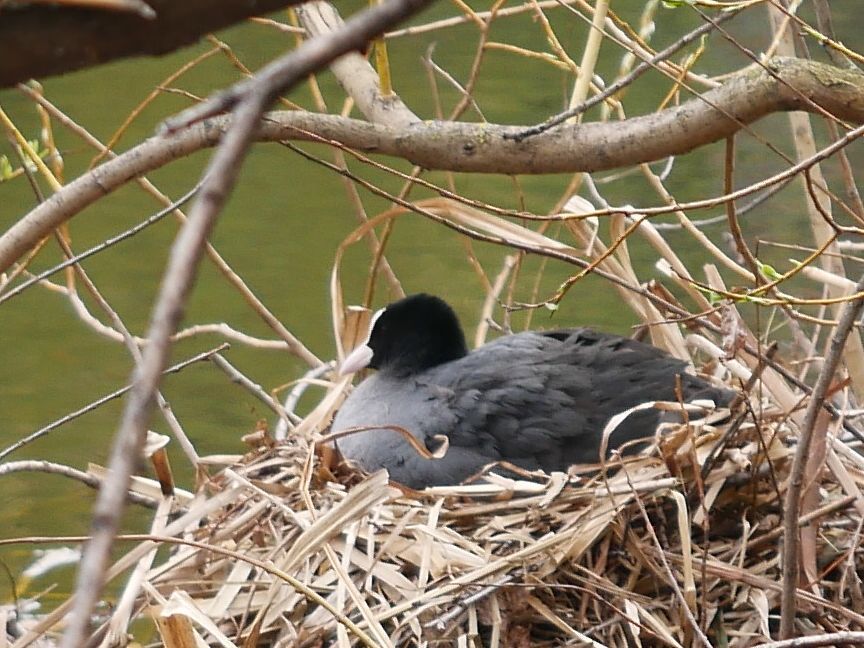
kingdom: Animalia
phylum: Chordata
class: Aves
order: Gruiformes
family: Rallidae
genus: Fulica
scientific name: Fulica atra
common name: Eurasian coot
